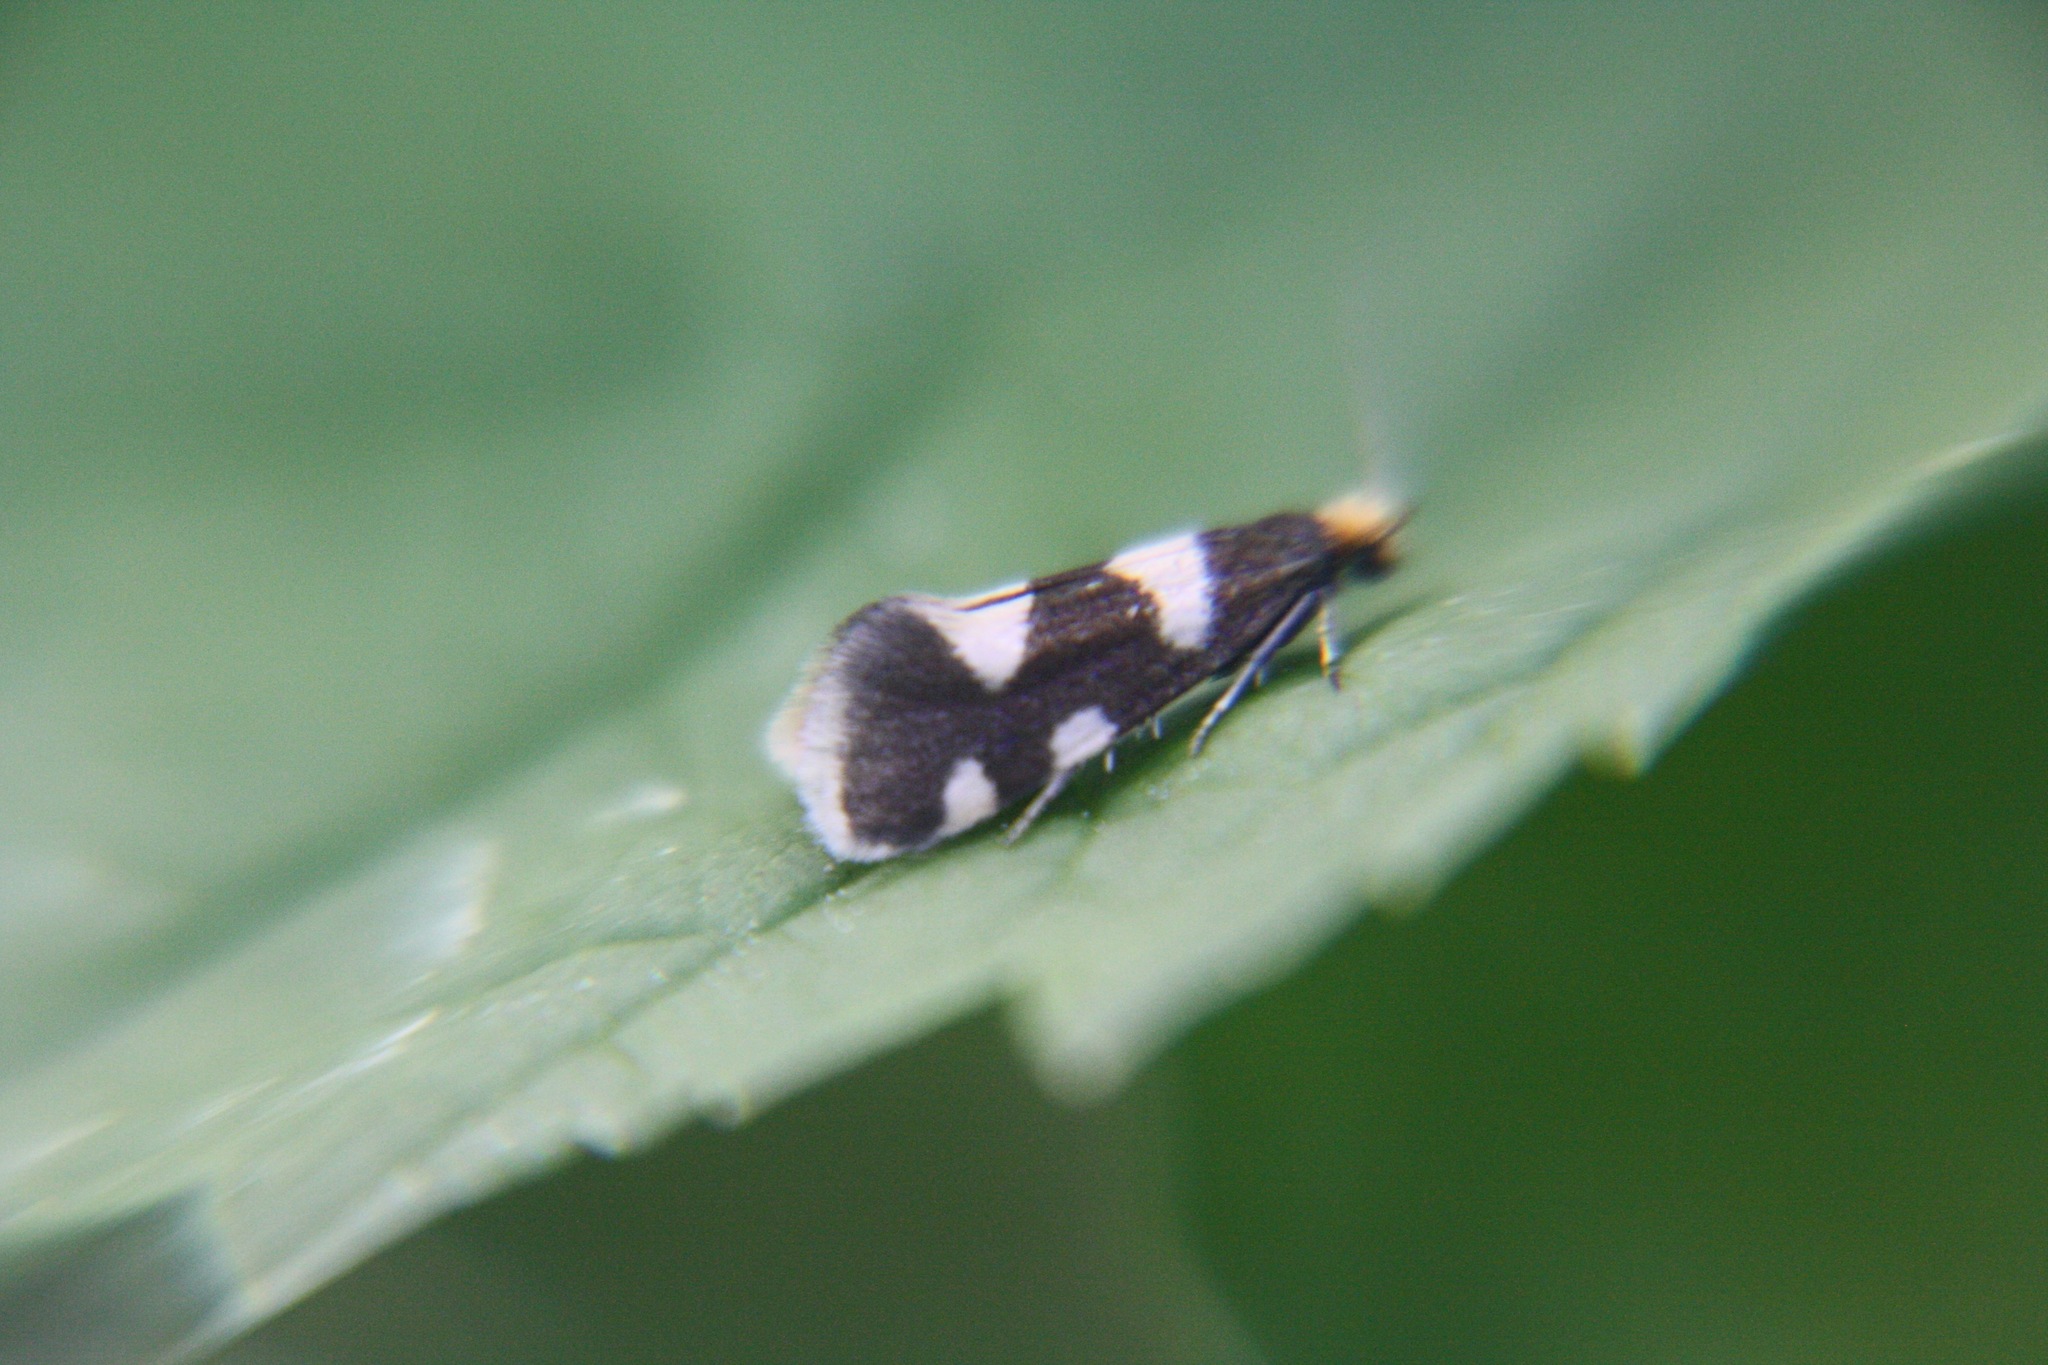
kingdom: Animalia
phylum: Arthropoda
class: Insecta
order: Lepidoptera
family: Incurvariidae
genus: Alloclemensia
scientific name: Alloclemensia mesospilella
